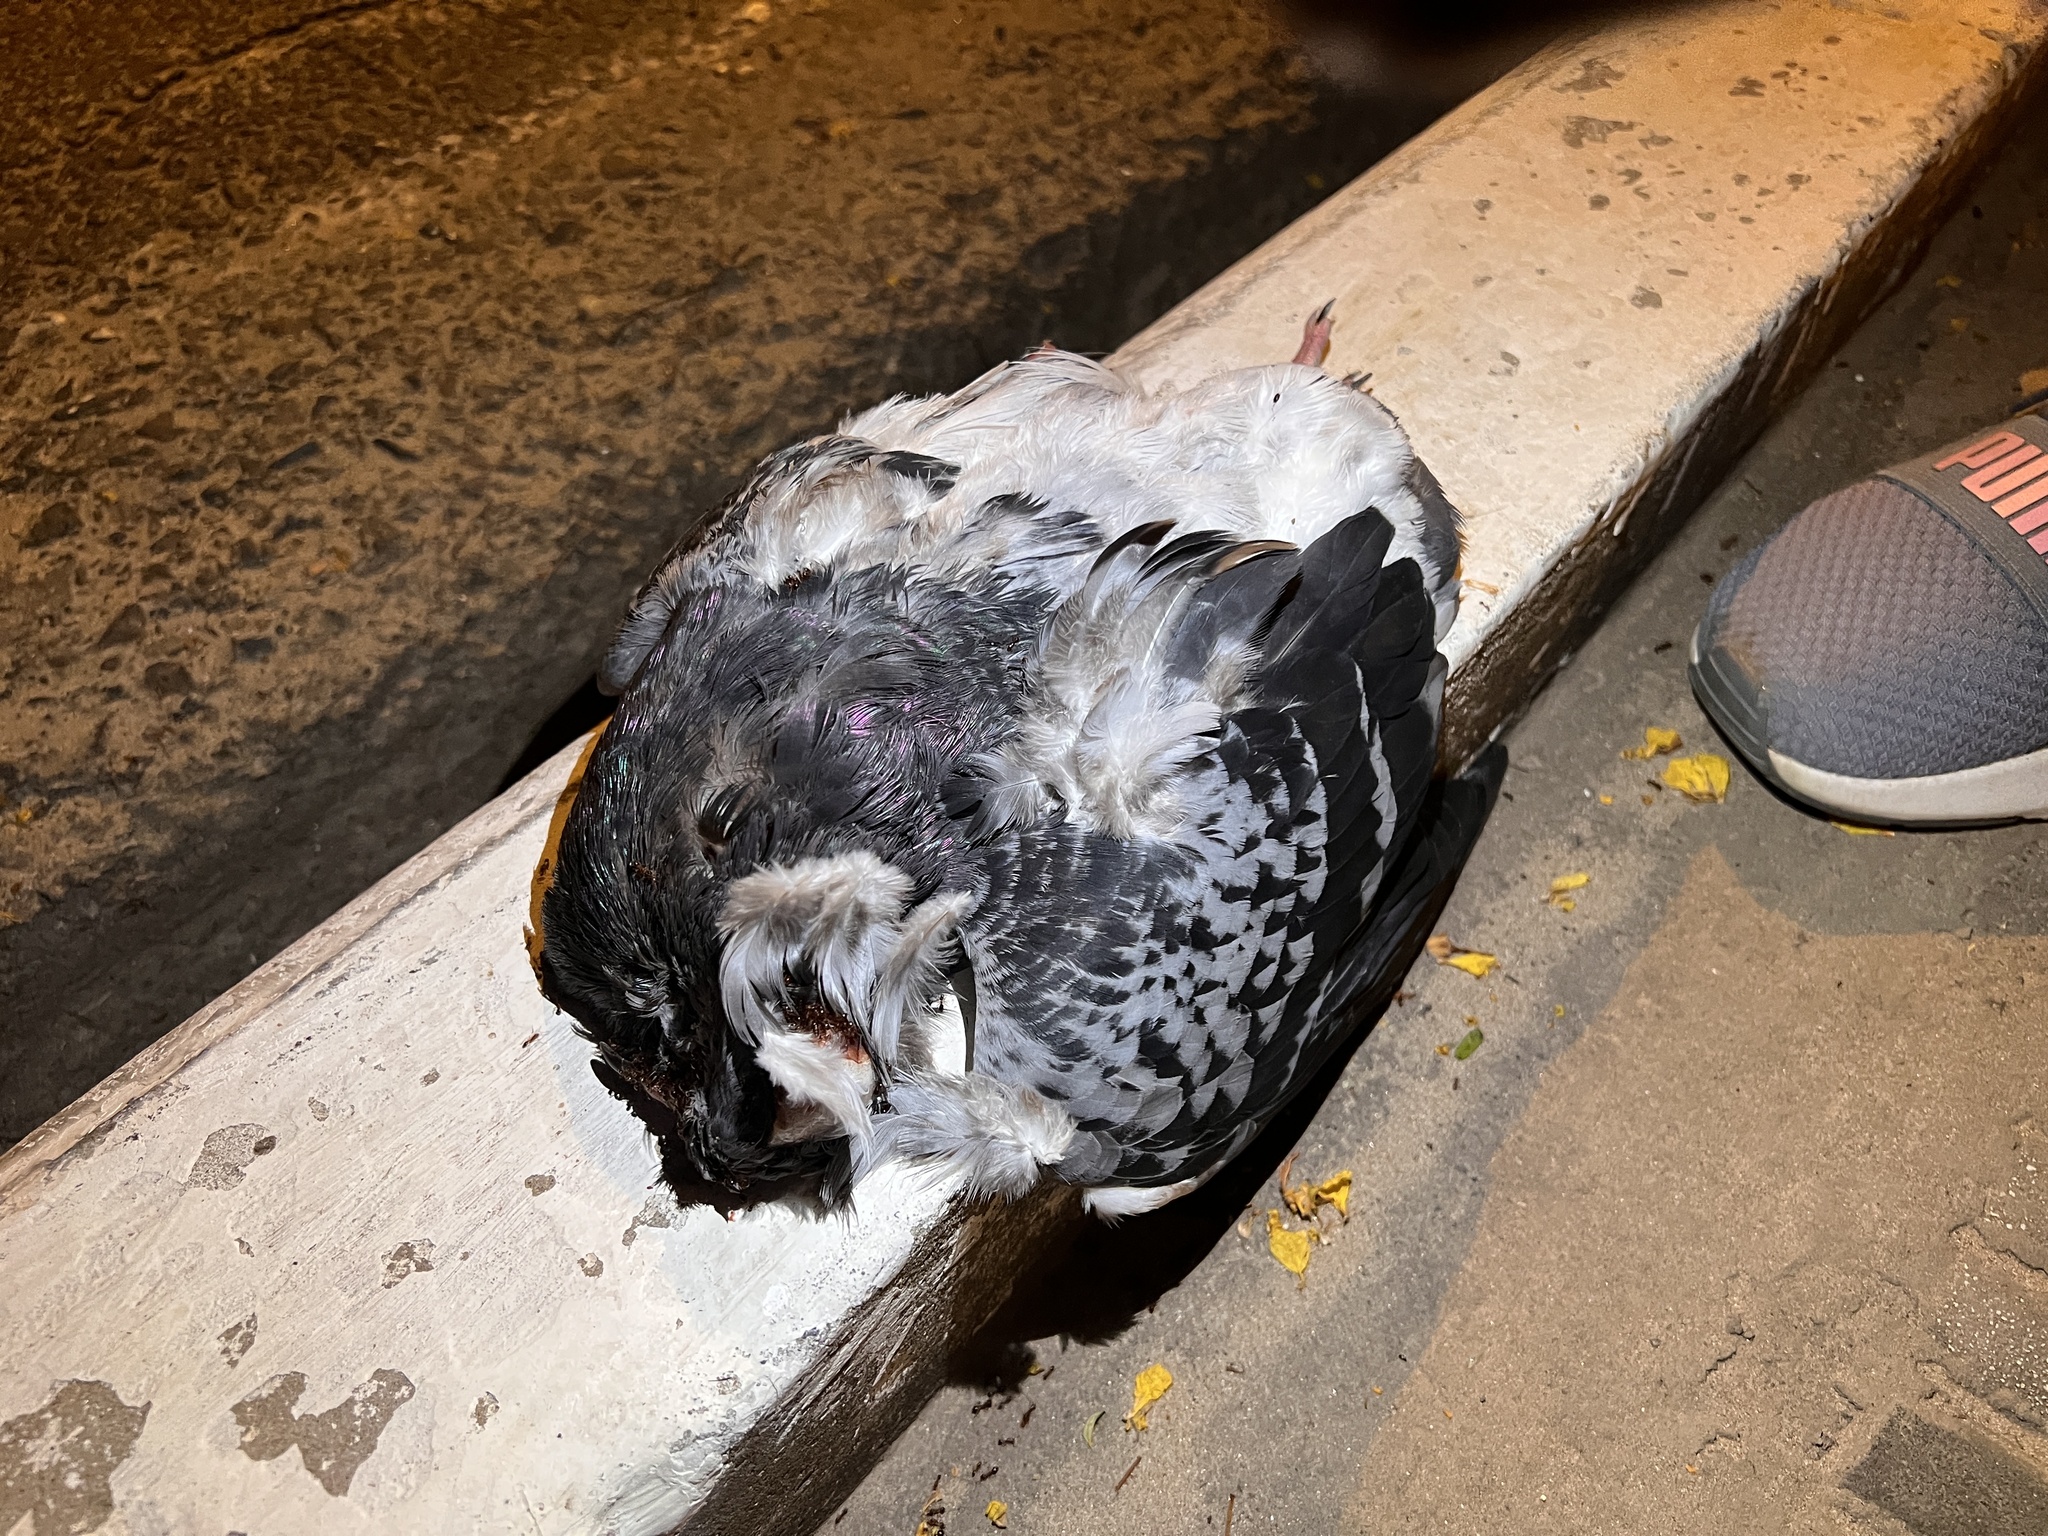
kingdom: Animalia
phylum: Chordata
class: Aves
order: Columbiformes
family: Columbidae
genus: Columba
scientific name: Columba livia
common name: Rock pigeon
